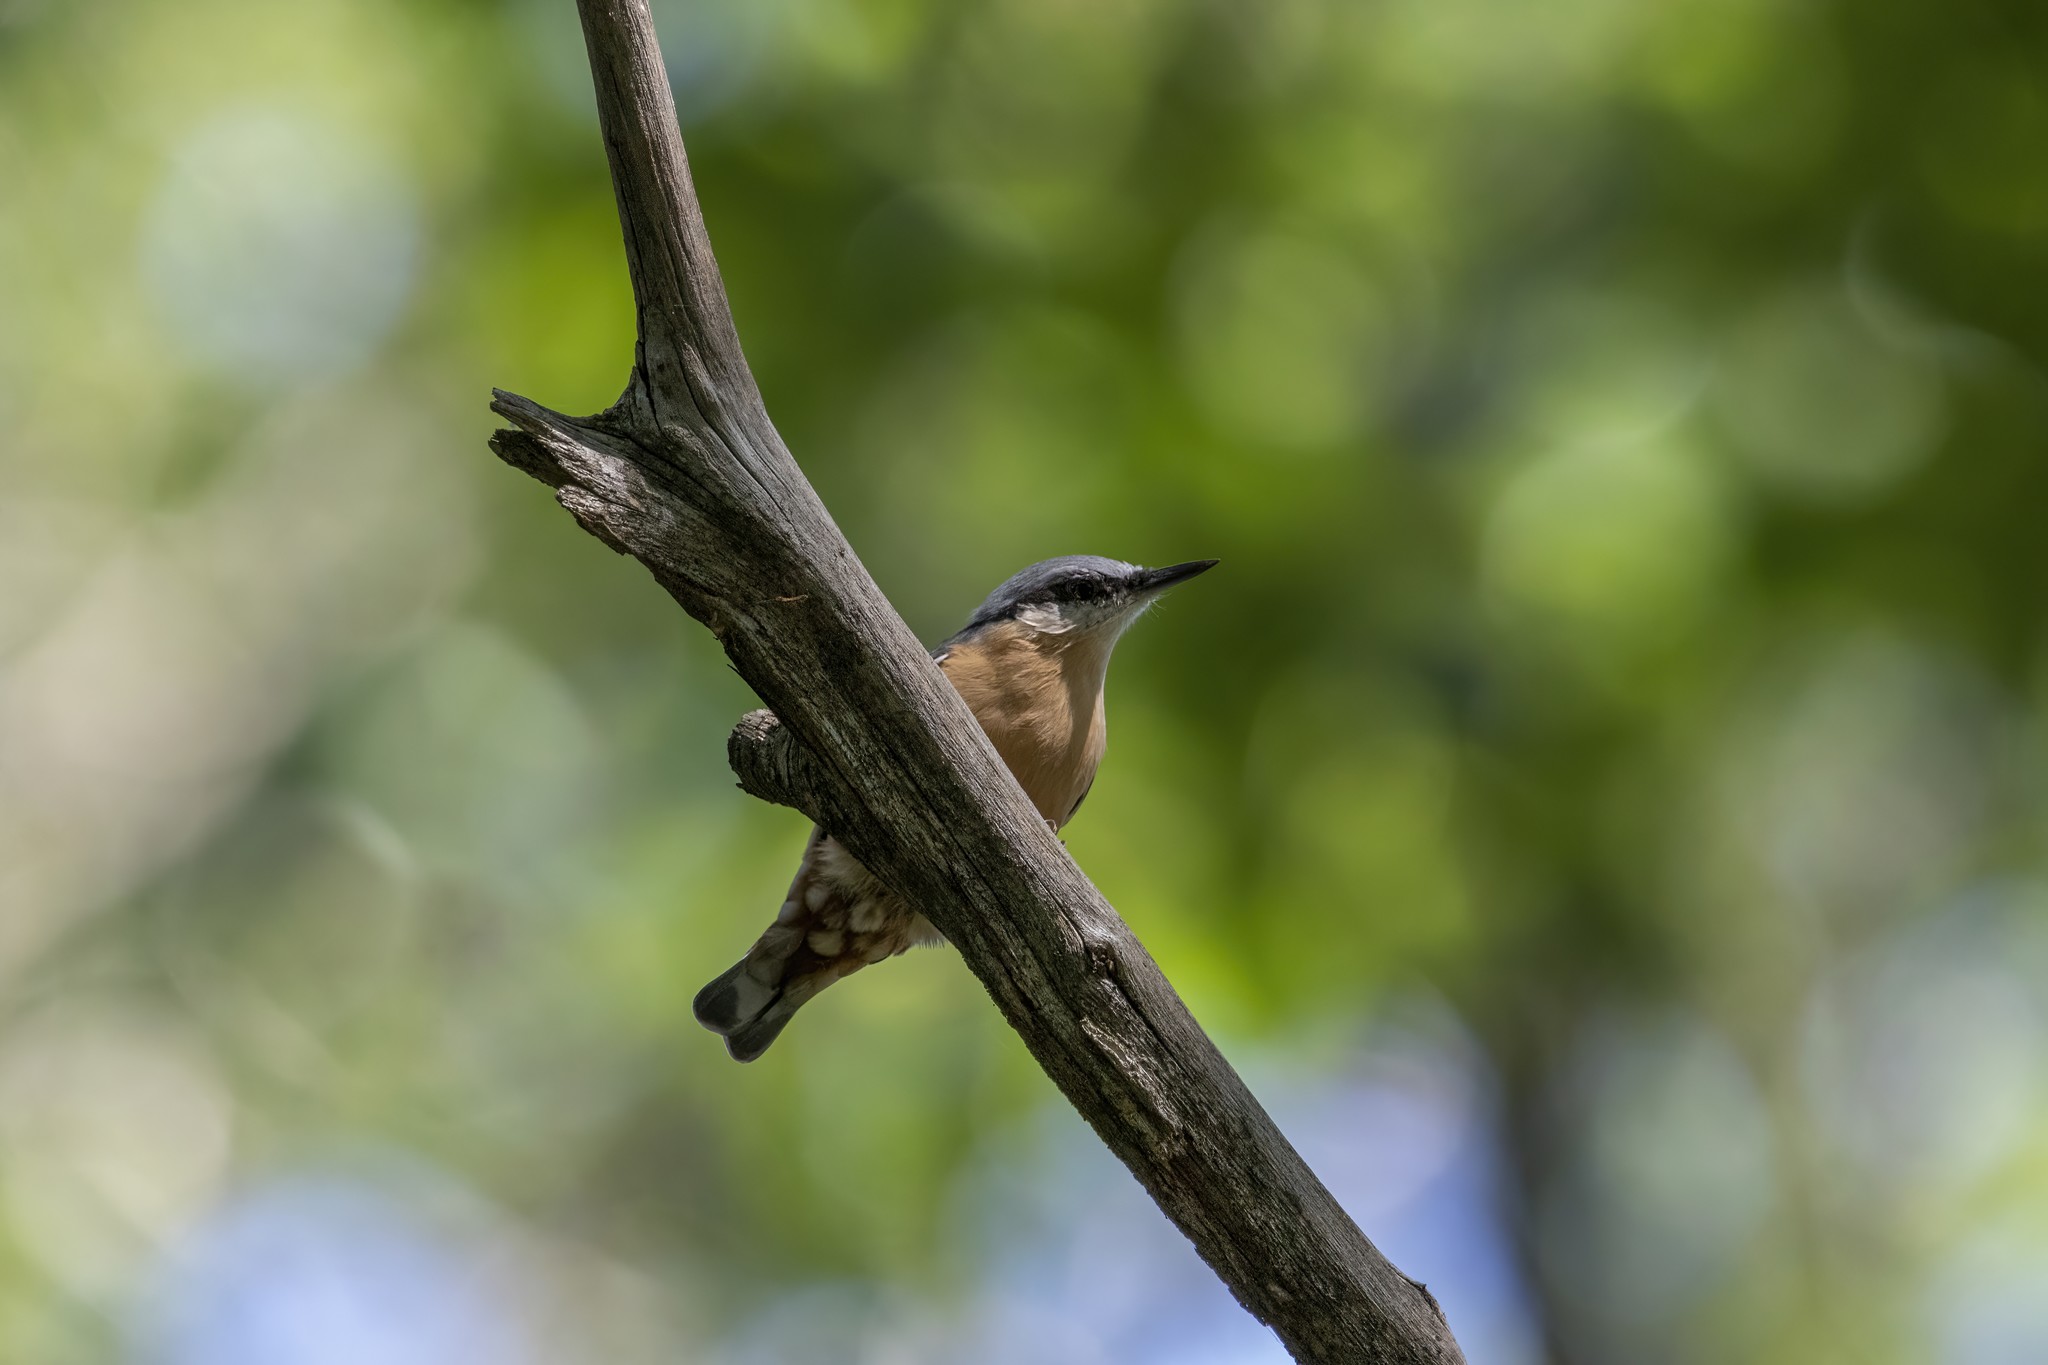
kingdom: Animalia
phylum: Chordata
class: Aves
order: Passeriformes
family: Sittidae
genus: Sitta
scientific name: Sitta europaea
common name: Eurasian nuthatch
